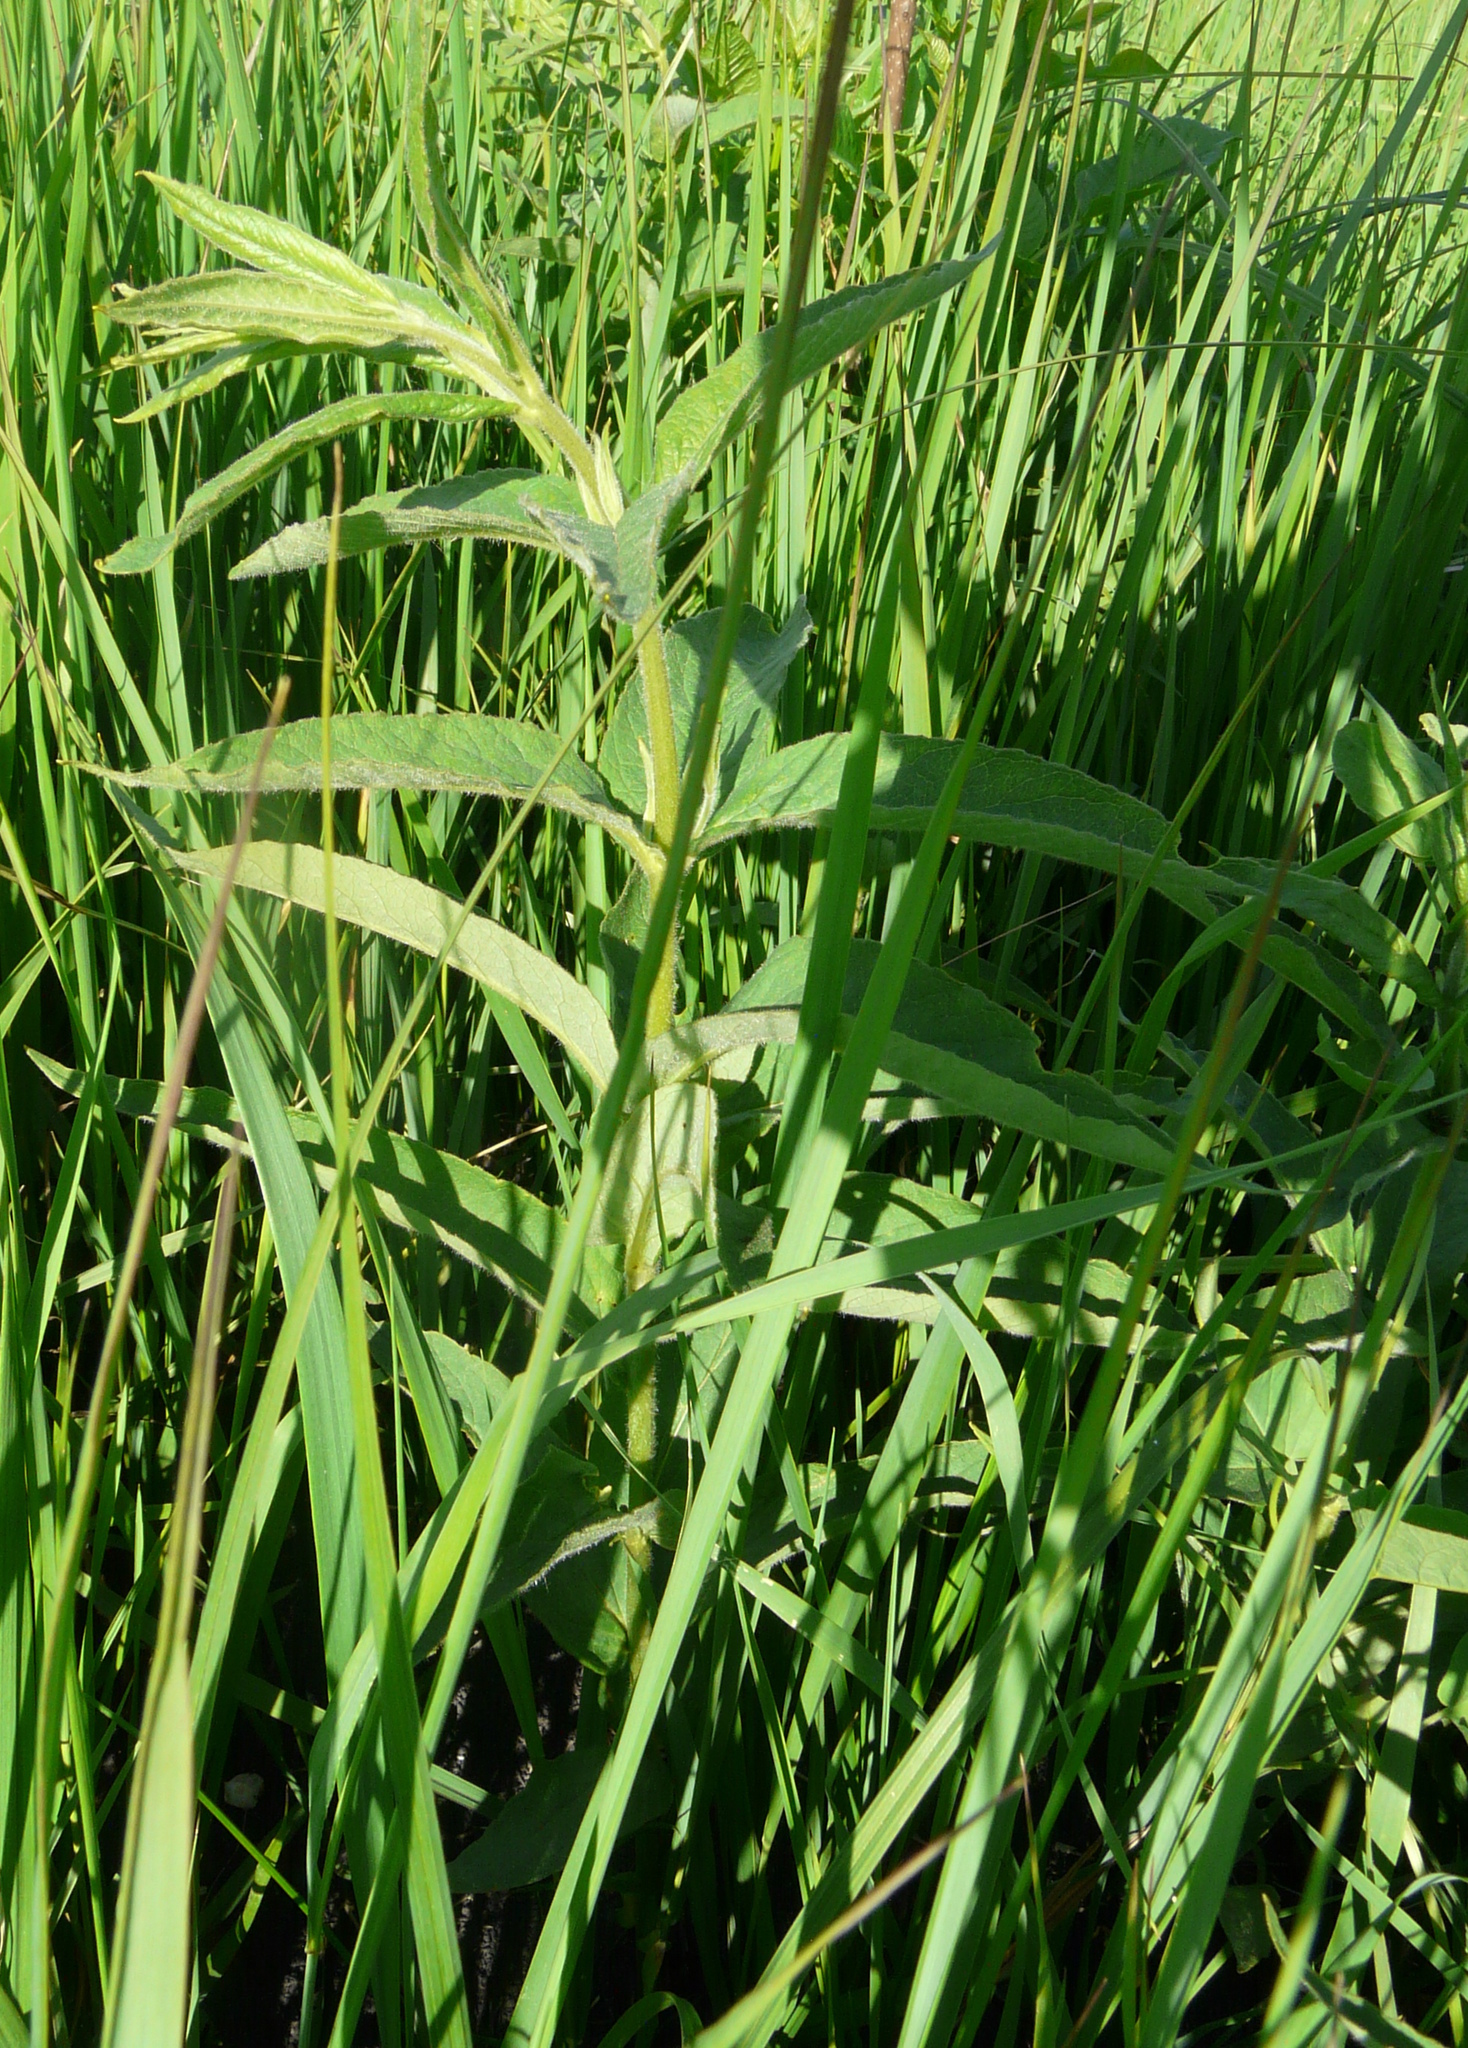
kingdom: Plantae
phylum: Tracheophyta
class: Magnoliopsida
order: Ericales
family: Primulaceae
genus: Lysimachia
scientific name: Lysimachia vulgaris
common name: Yellow loosestrife
